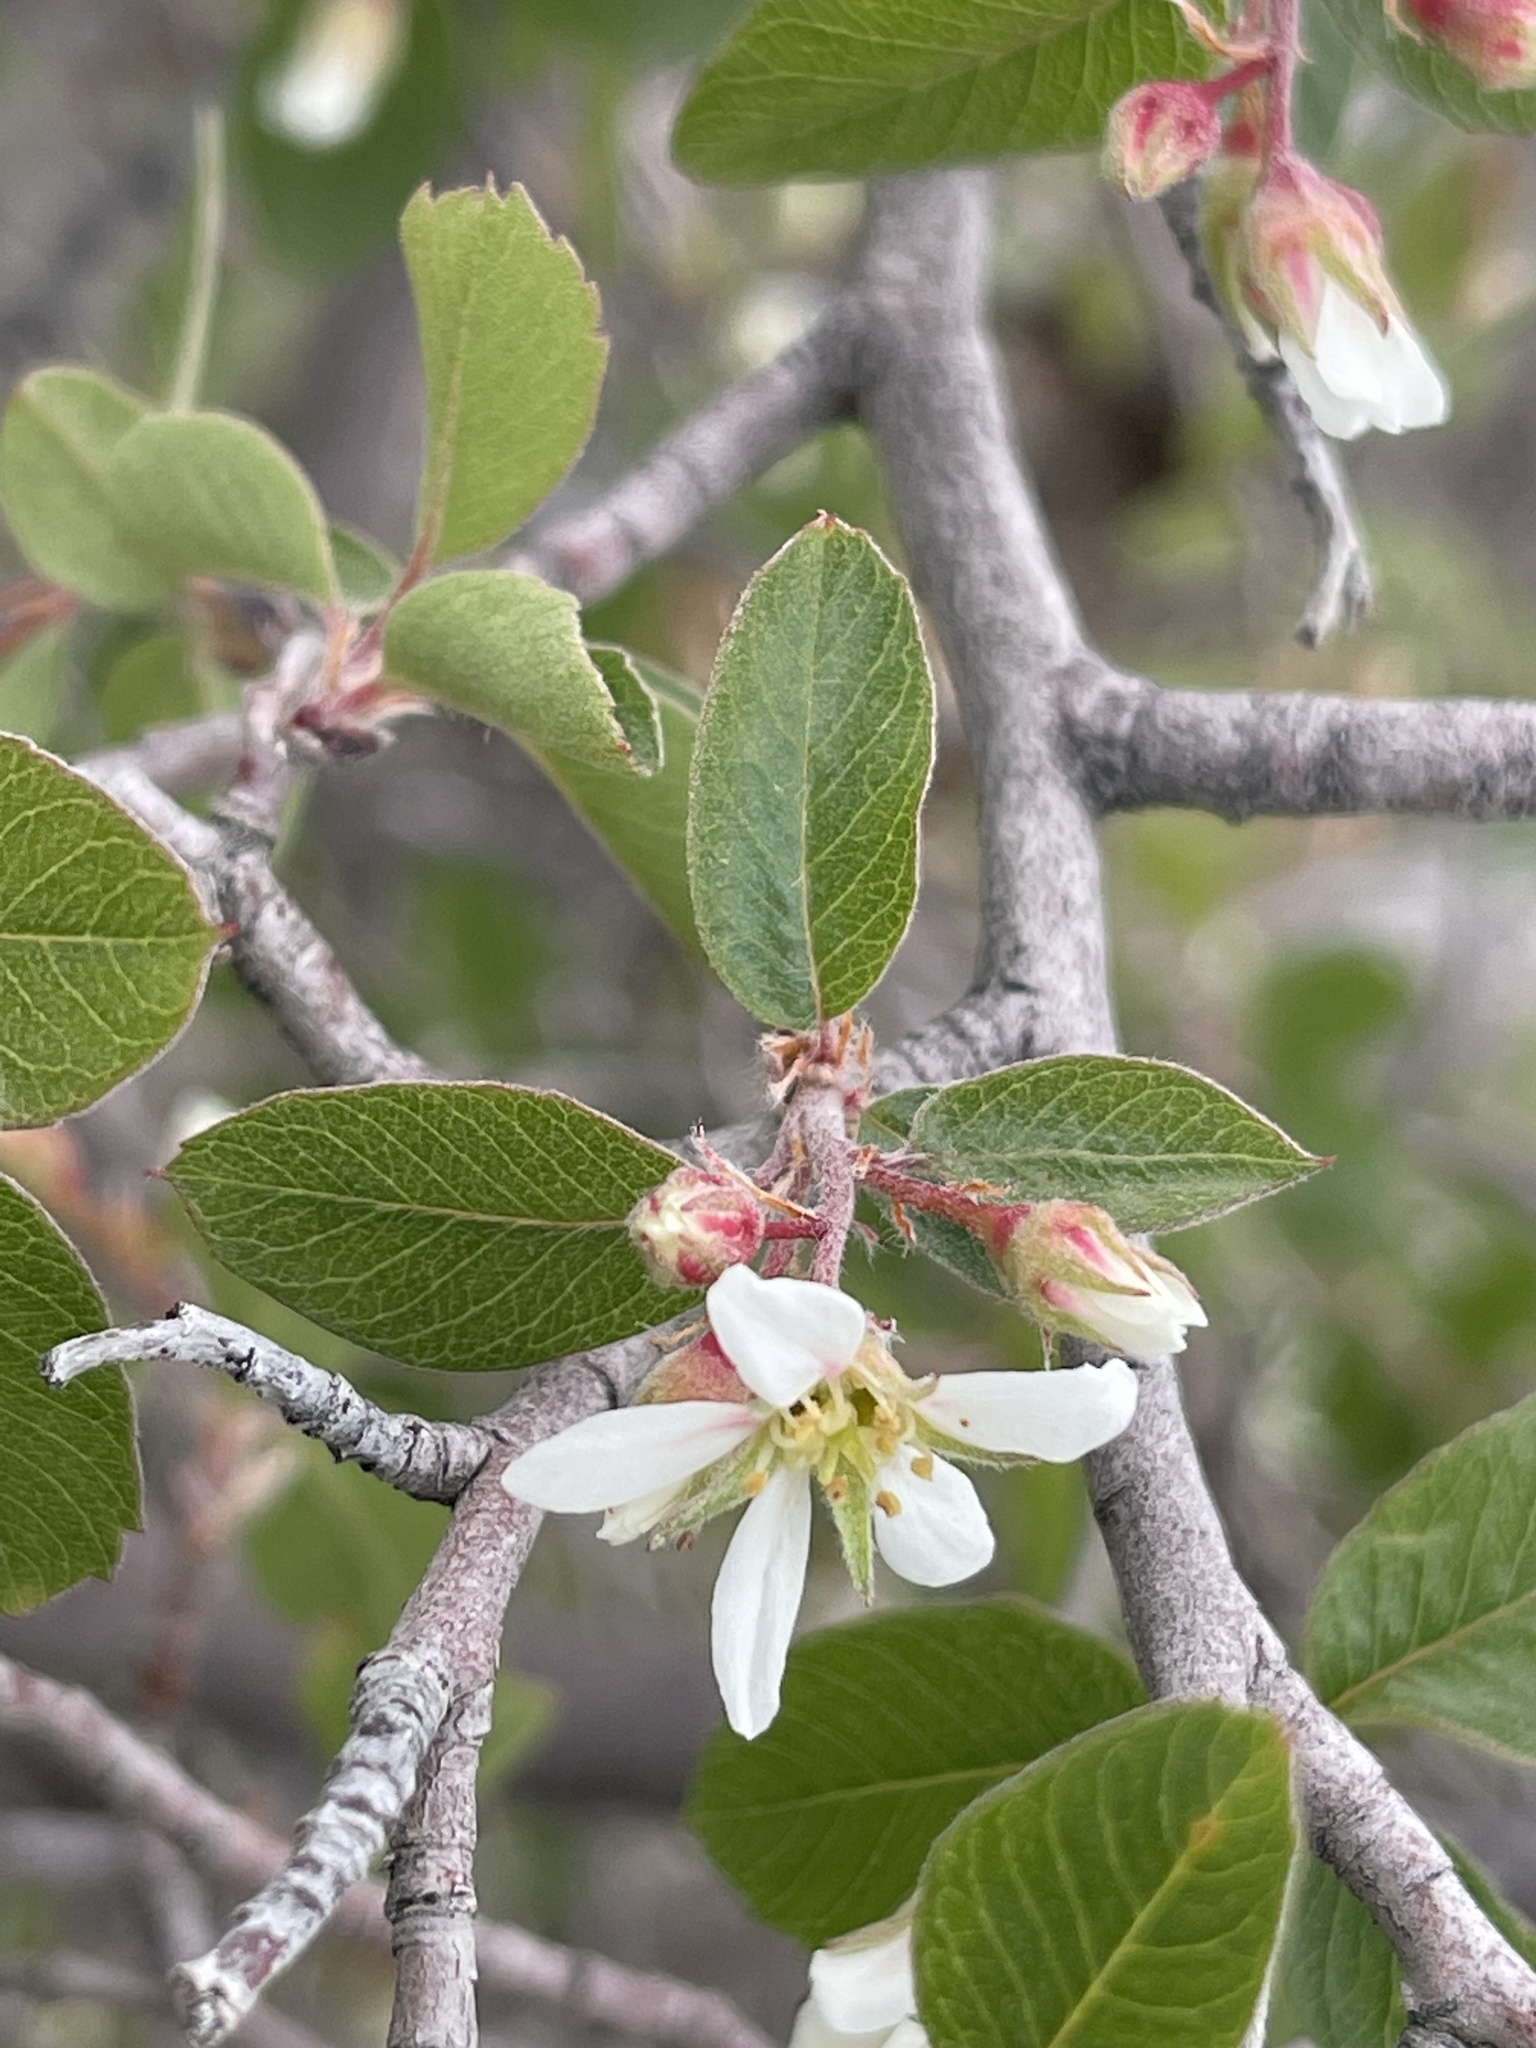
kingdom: Plantae
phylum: Tracheophyta
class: Magnoliopsida
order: Rosales
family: Rosaceae
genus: Amelanchier
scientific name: Amelanchier utahensis
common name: Utah serviceberry
